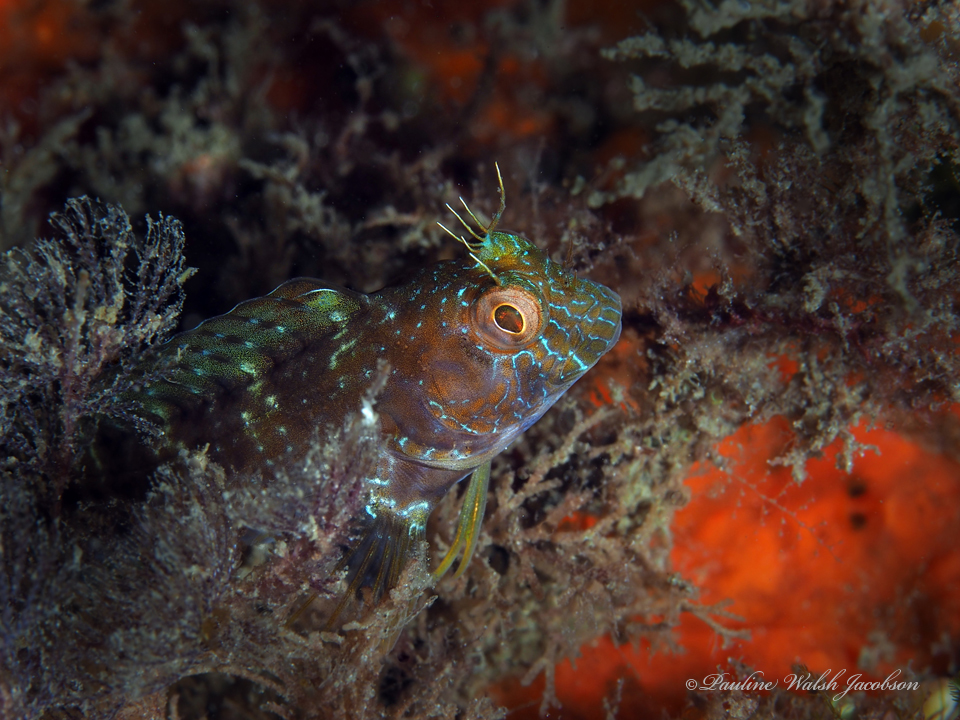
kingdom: Animalia
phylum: Chordata
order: Perciformes
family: Blenniidae
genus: Parablennius
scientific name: Parablennius marmoreus
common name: Seaweed blenny
